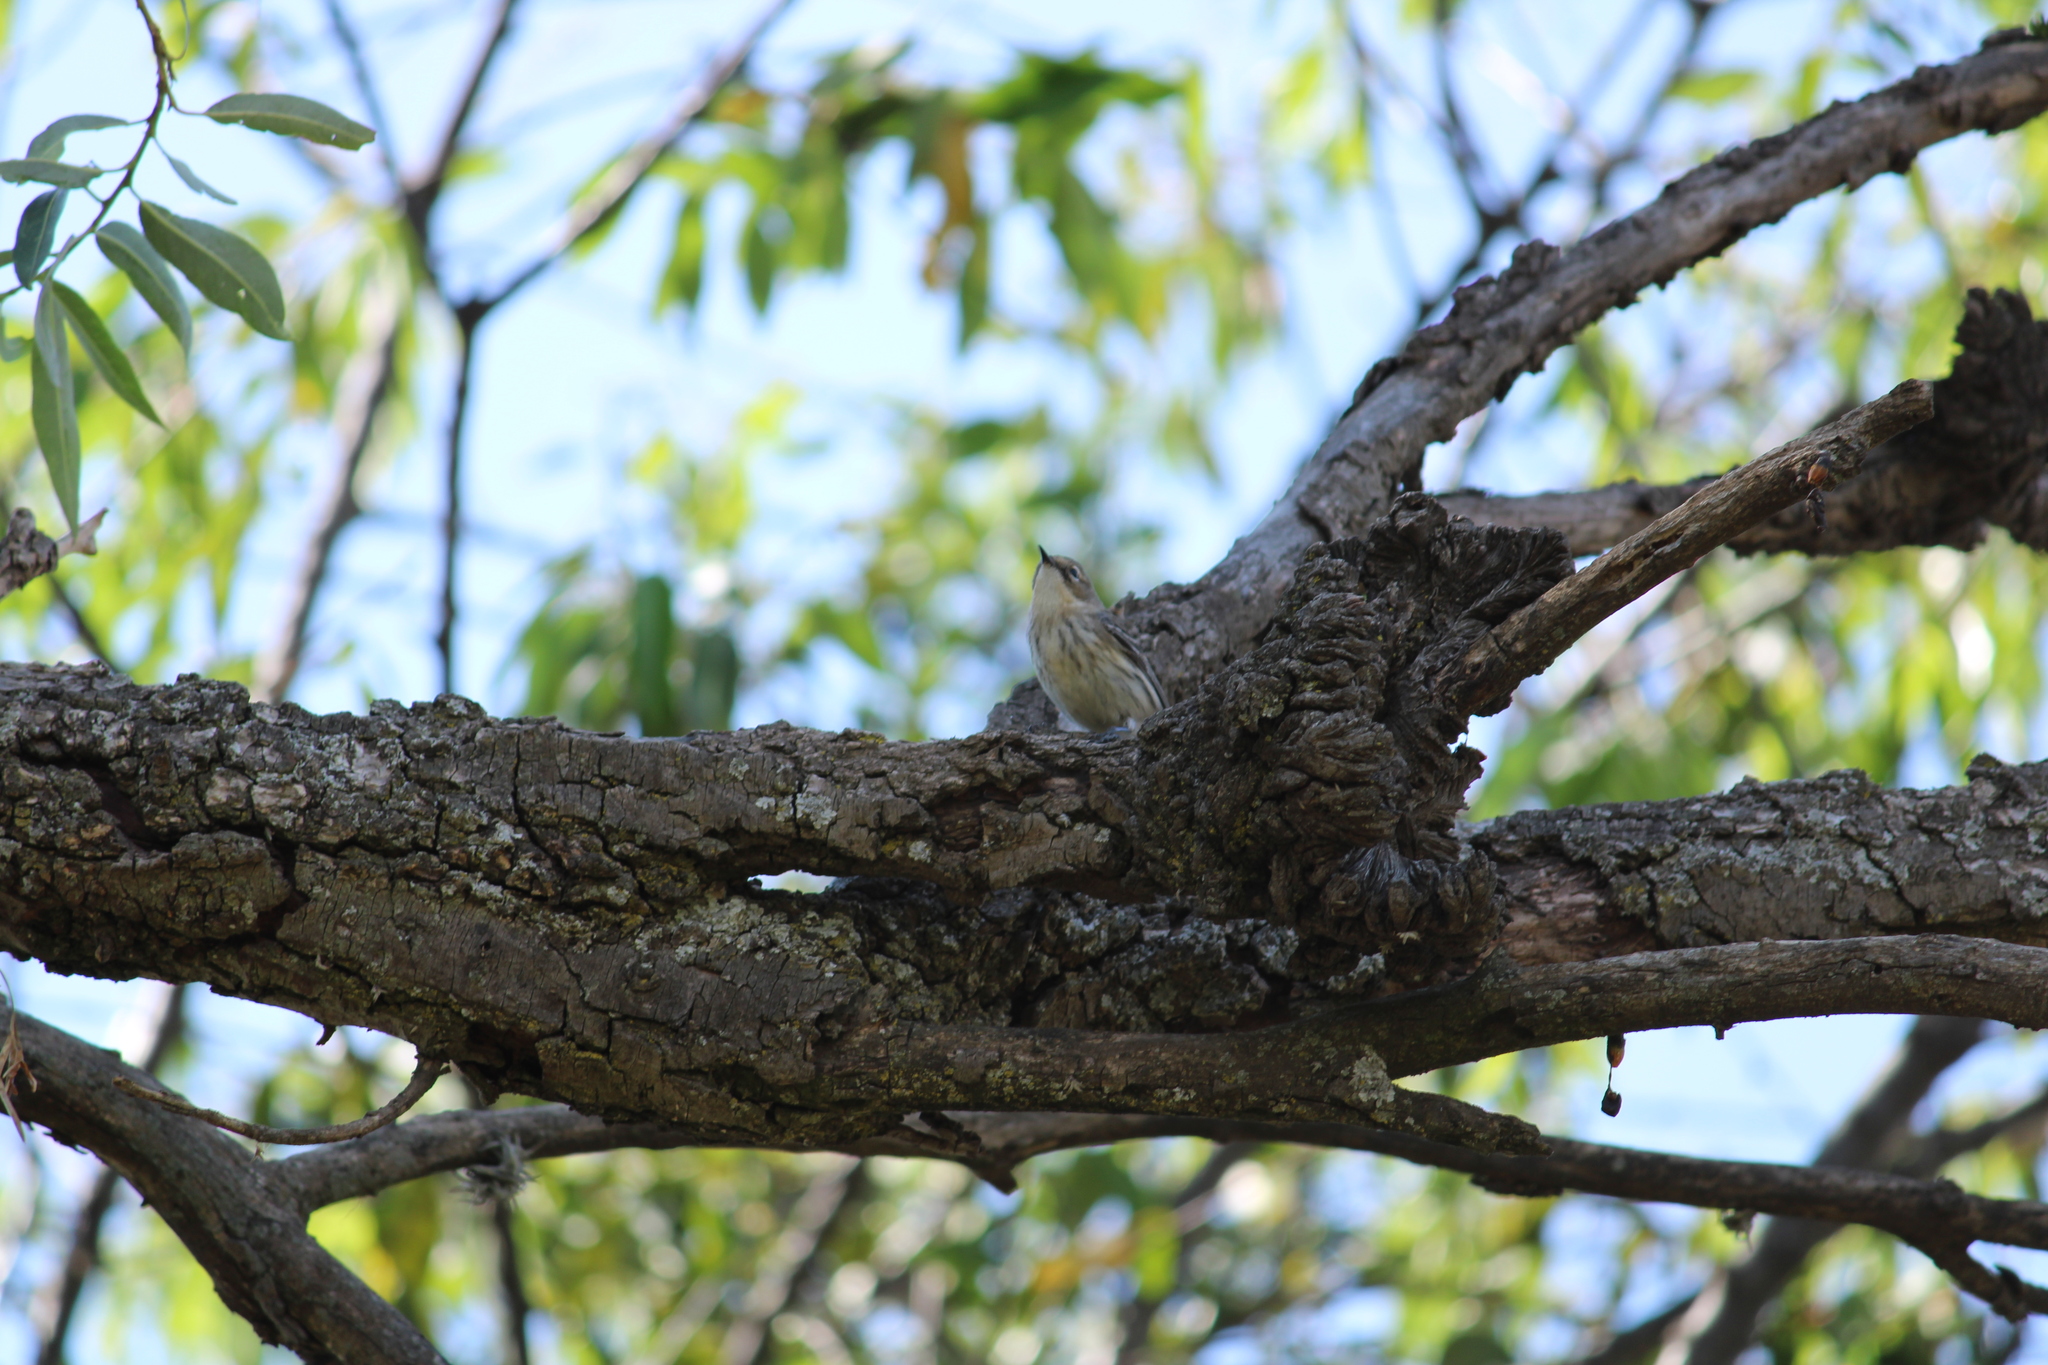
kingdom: Animalia
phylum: Chordata
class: Aves
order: Passeriformes
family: Parulidae
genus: Setophaga
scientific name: Setophaga coronata
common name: Myrtle warbler
